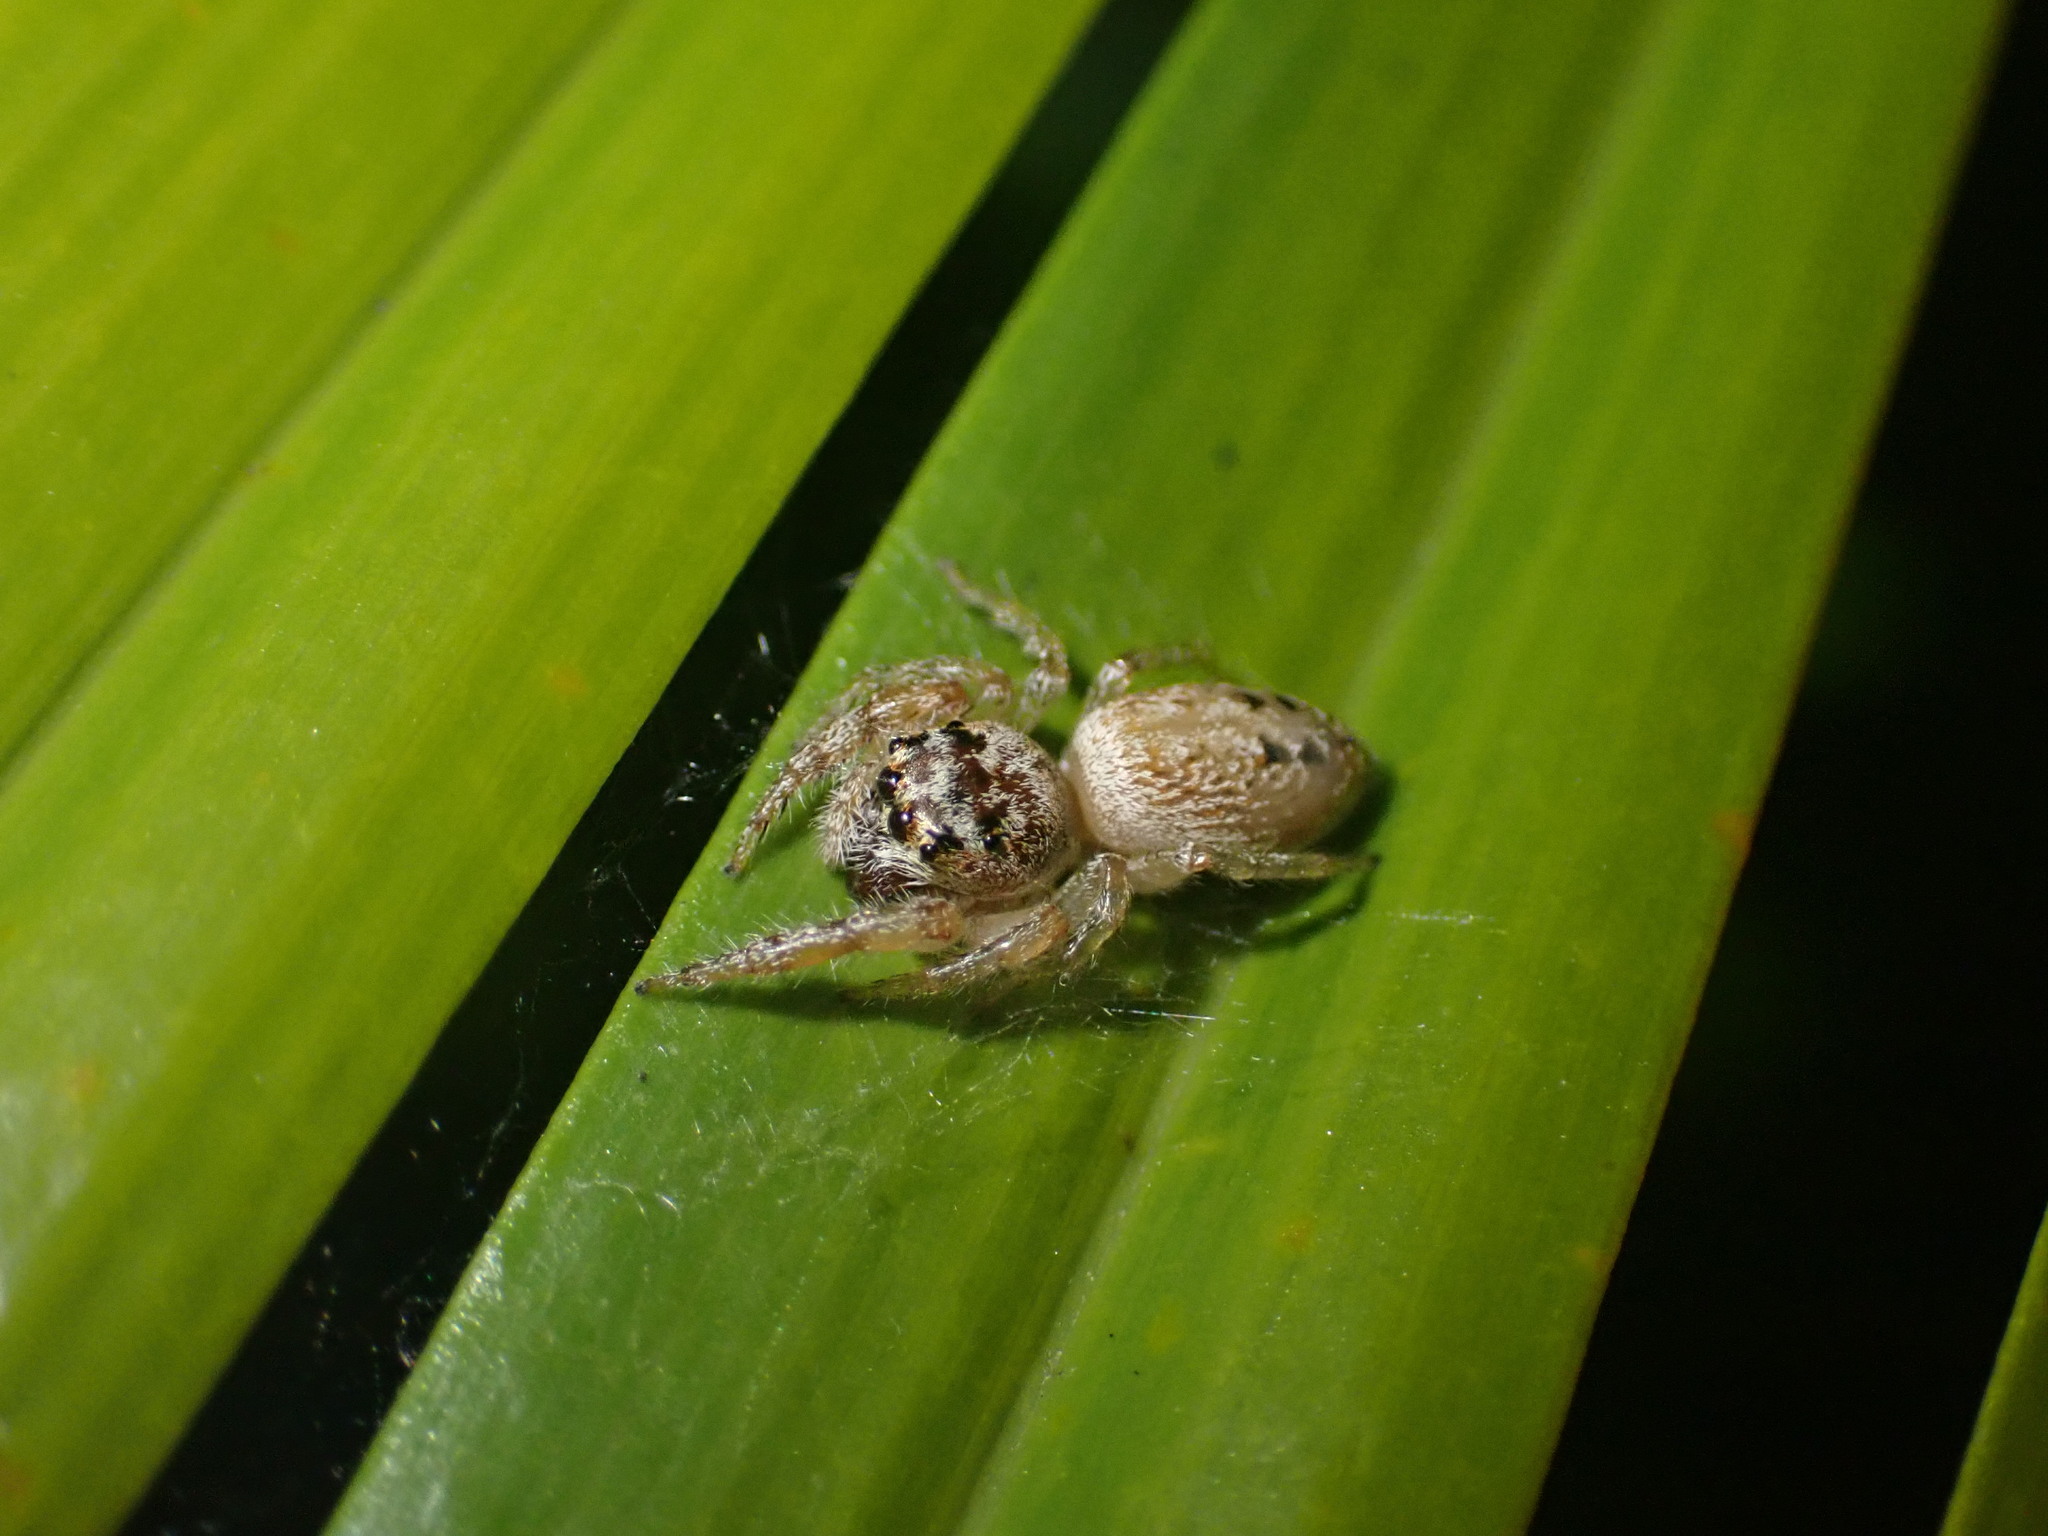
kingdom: Animalia
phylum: Arthropoda
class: Arachnida
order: Araneae
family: Salticidae
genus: Opisthoncus
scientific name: Opisthoncus polyphemus
